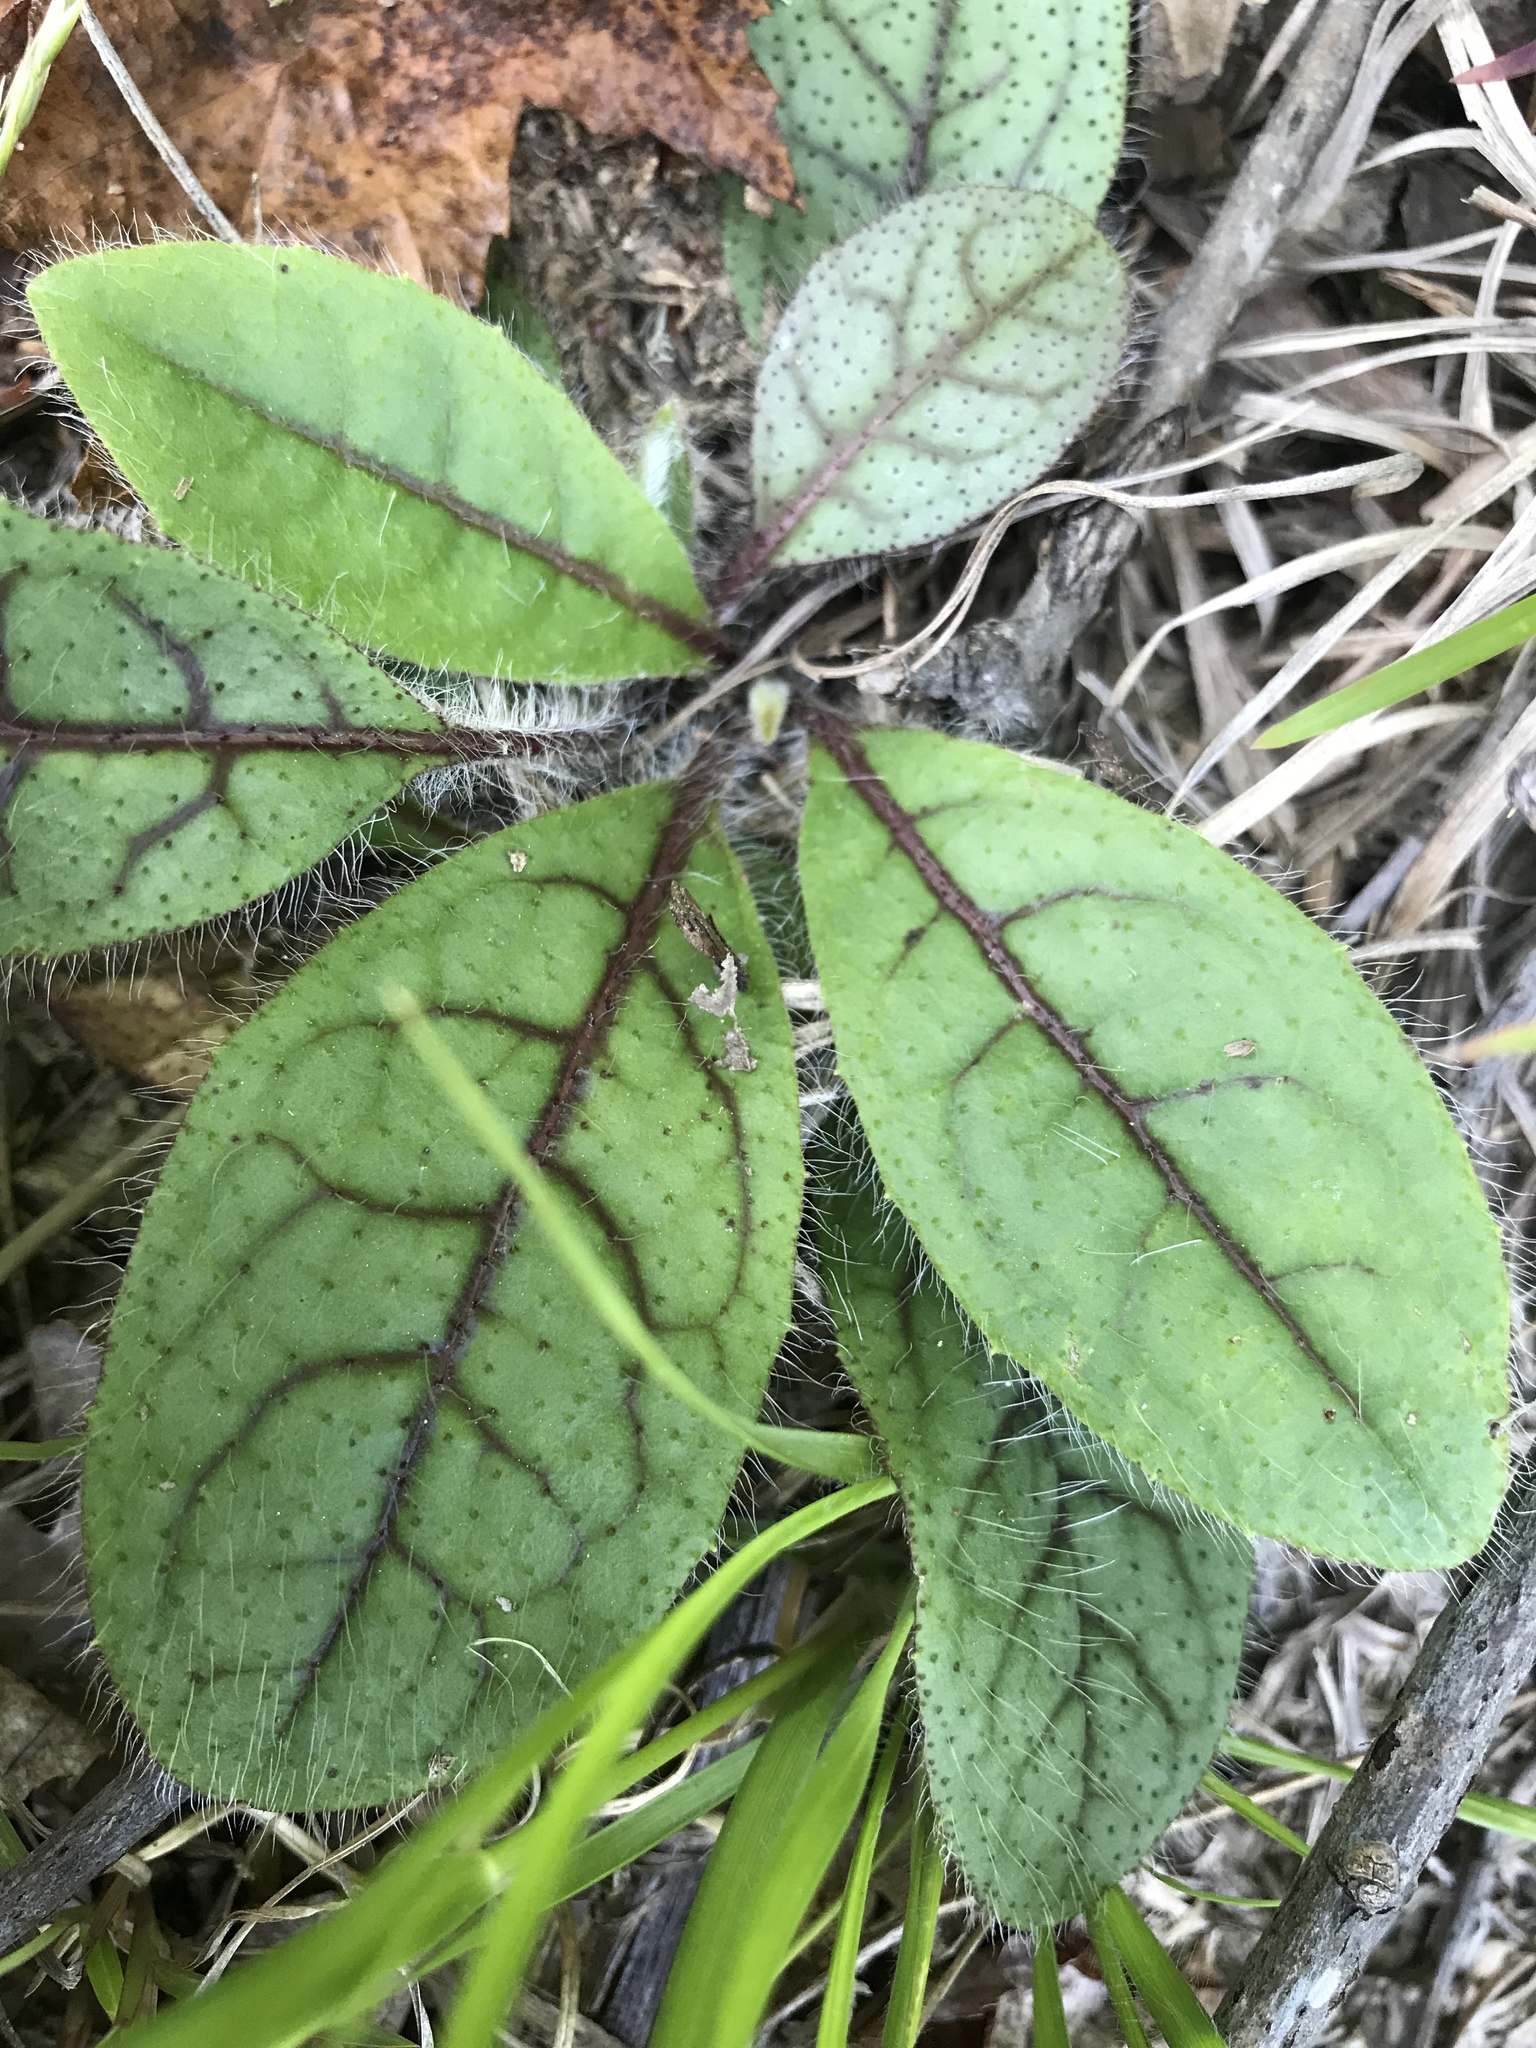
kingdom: Plantae
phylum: Tracheophyta
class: Magnoliopsida
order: Asterales
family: Asteraceae
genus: Hieracium
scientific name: Hieracium venosum
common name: Rattlesnake hawkweed
